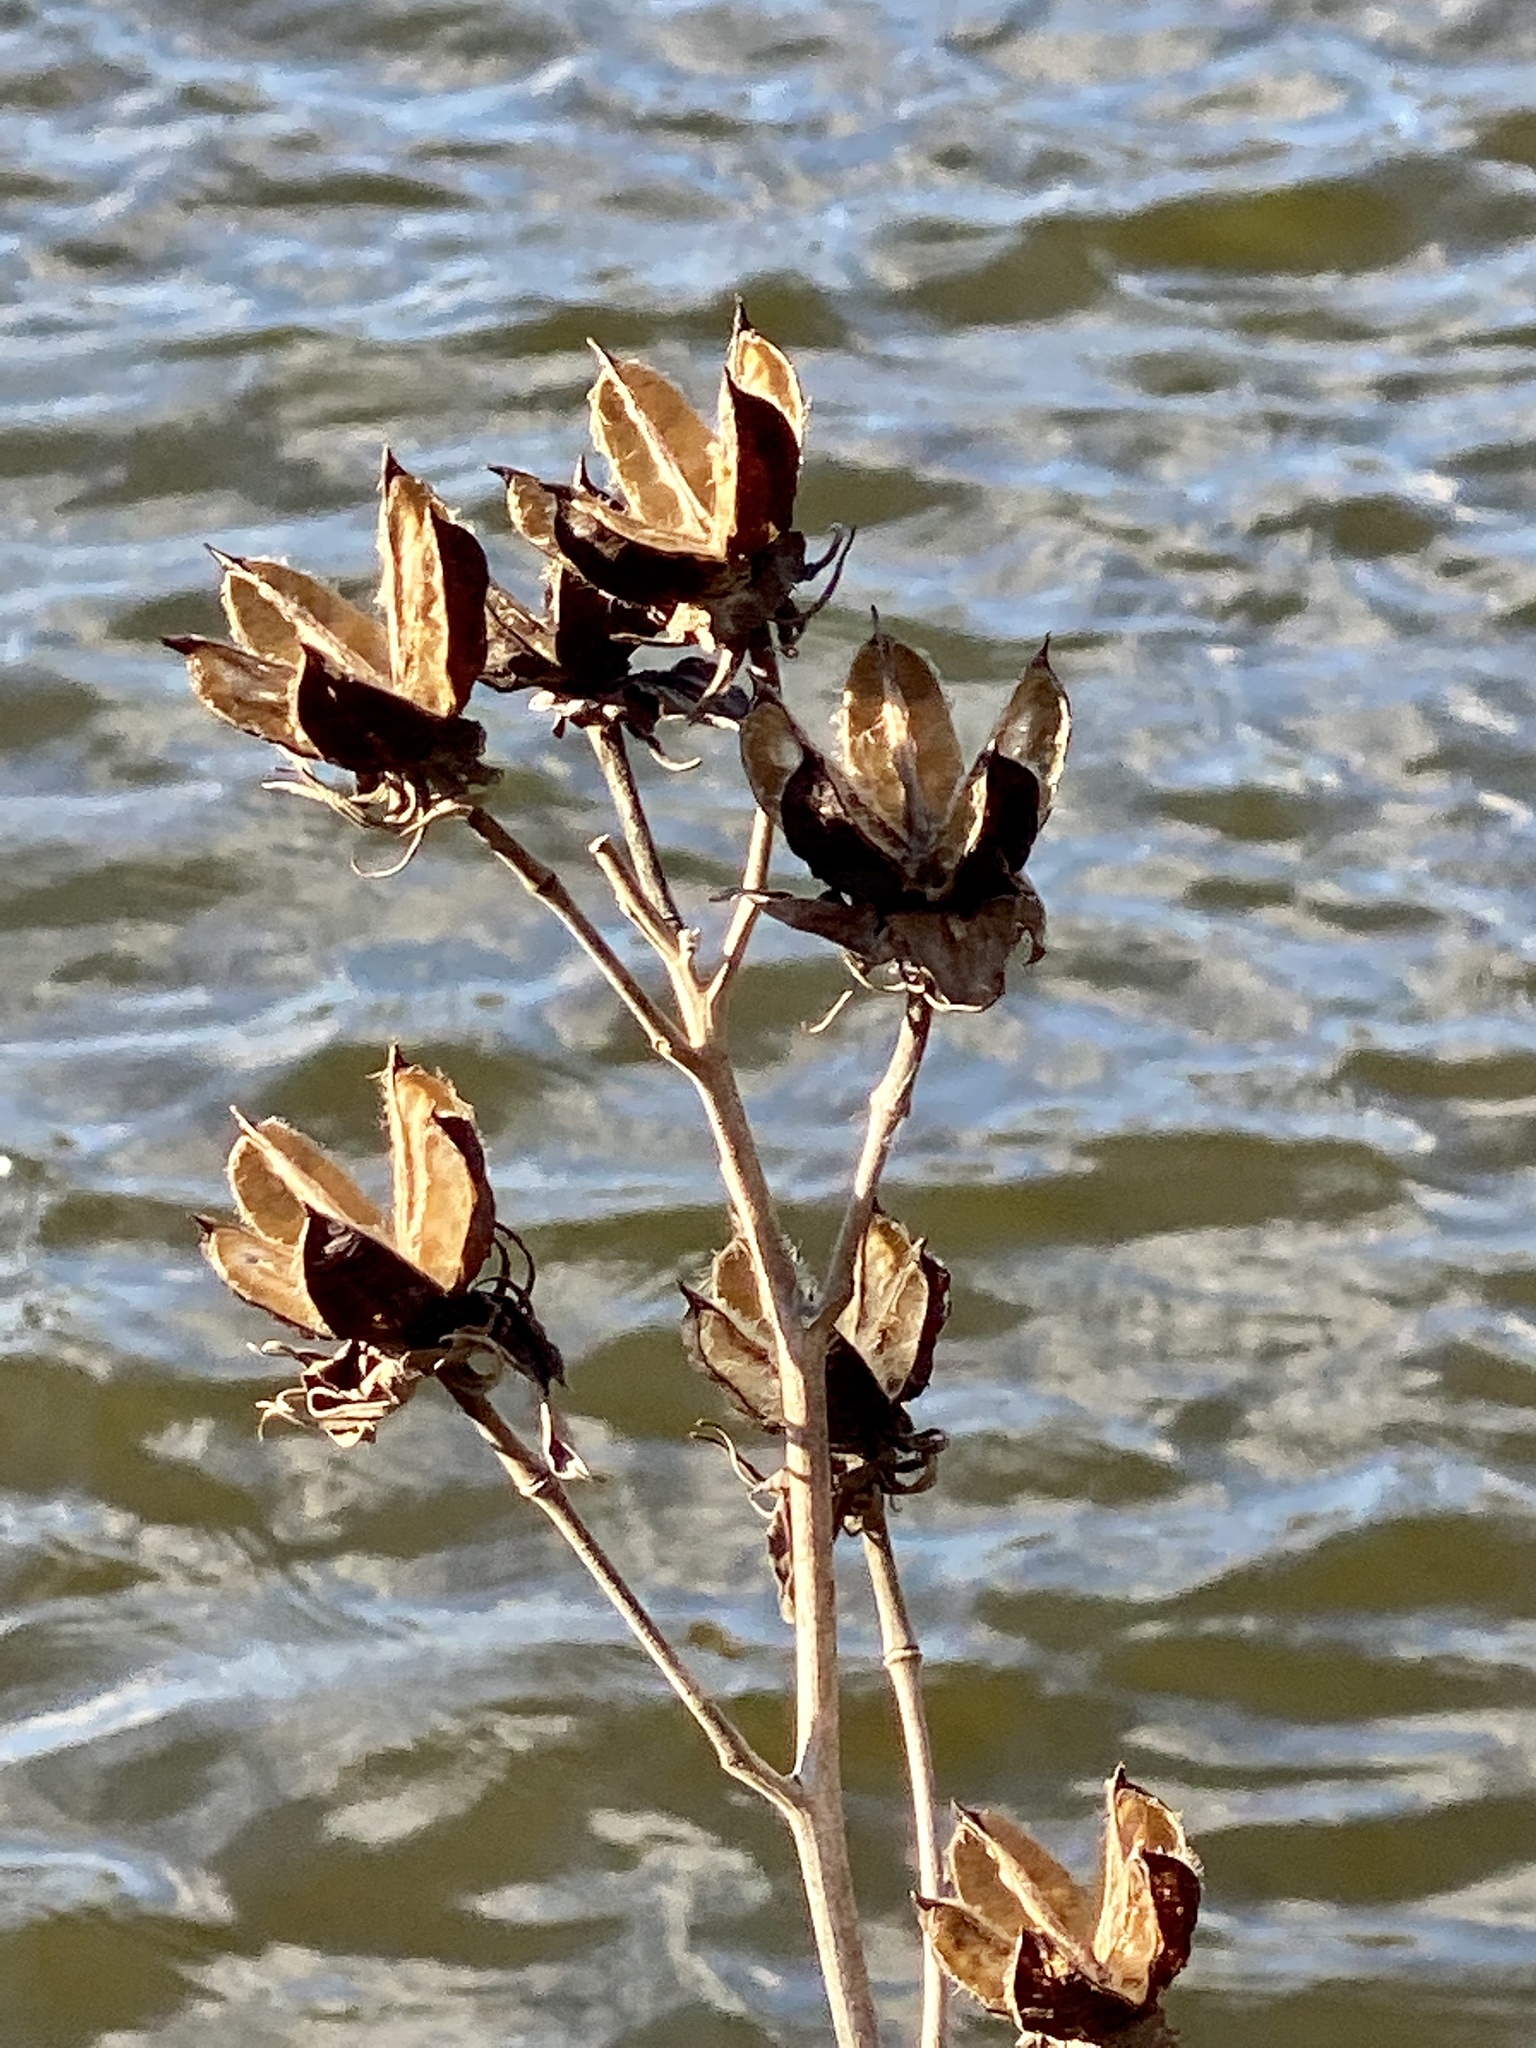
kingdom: Plantae
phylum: Tracheophyta
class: Magnoliopsida
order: Malvales
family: Malvaceae
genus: Hibiscus
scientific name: Hibiscus moscheutos
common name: Common rose-mallow
